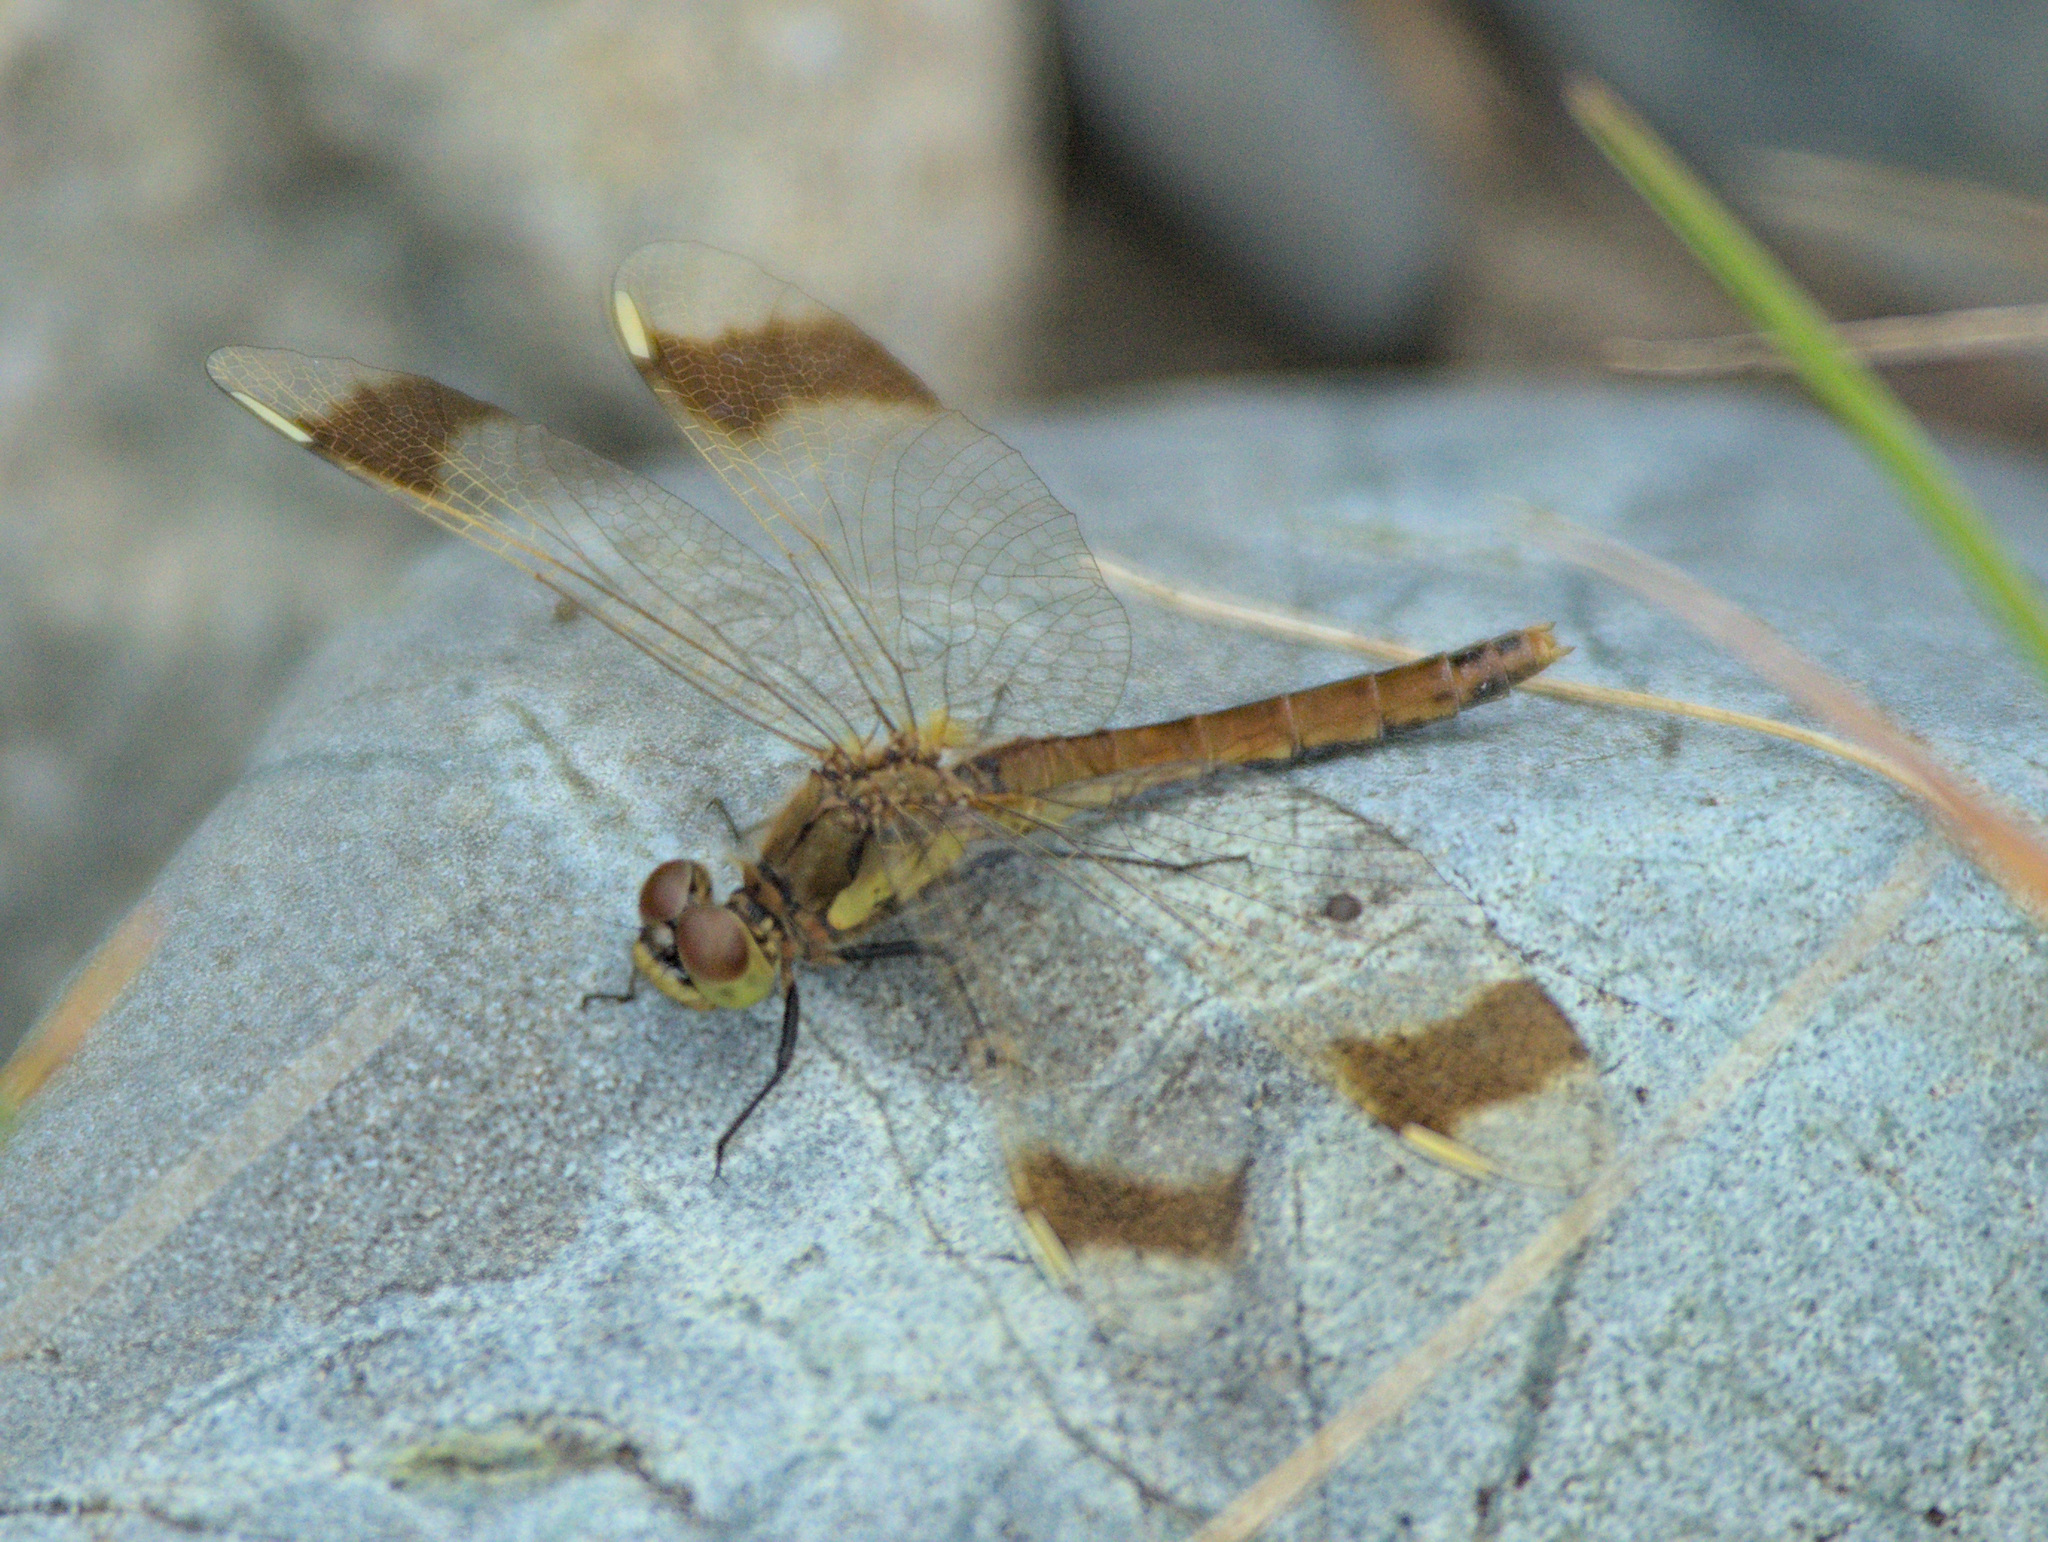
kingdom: Animalia
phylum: Arthropoda
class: Insecta
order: Odonata
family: Libellulidae
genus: Sympetrum
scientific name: Sympetrum pedemontanum
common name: Banded darter
